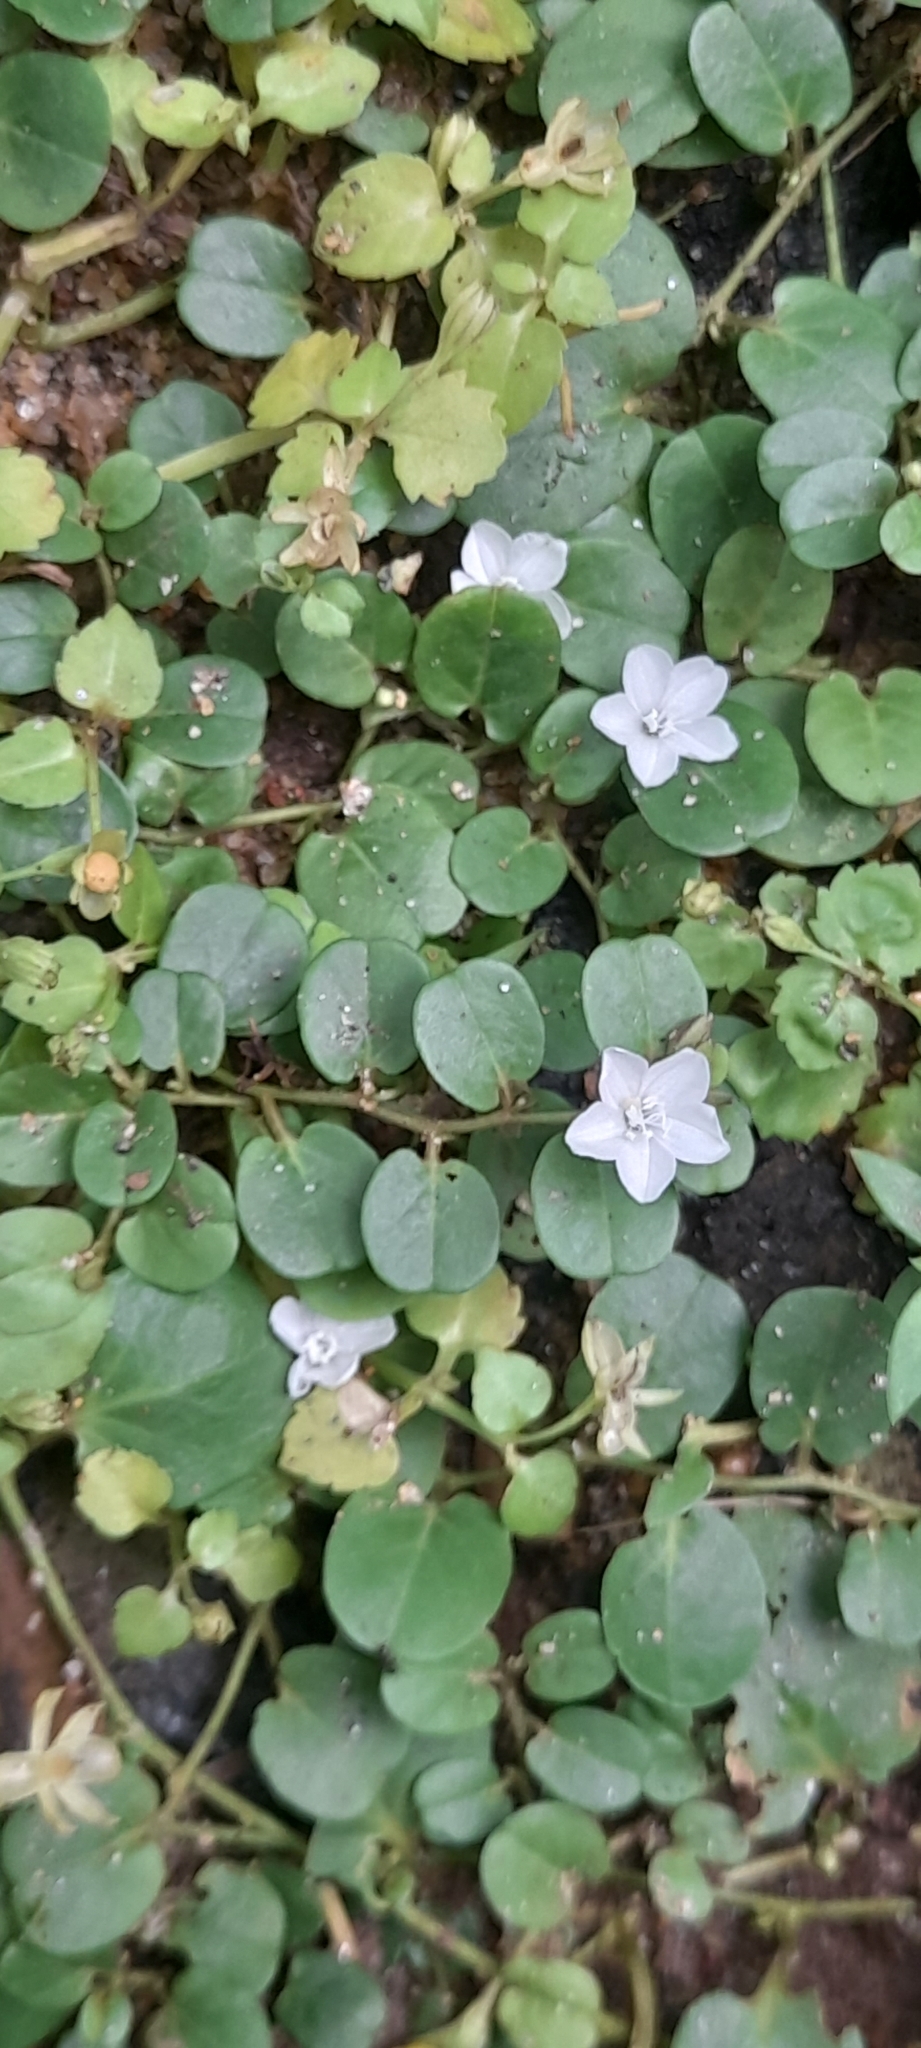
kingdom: Plantae
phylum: Tracheophyta
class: Magnoliopsida
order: Solanales
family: Convolvulaceae
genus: Evolvulus
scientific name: Evolvulus nummularius
